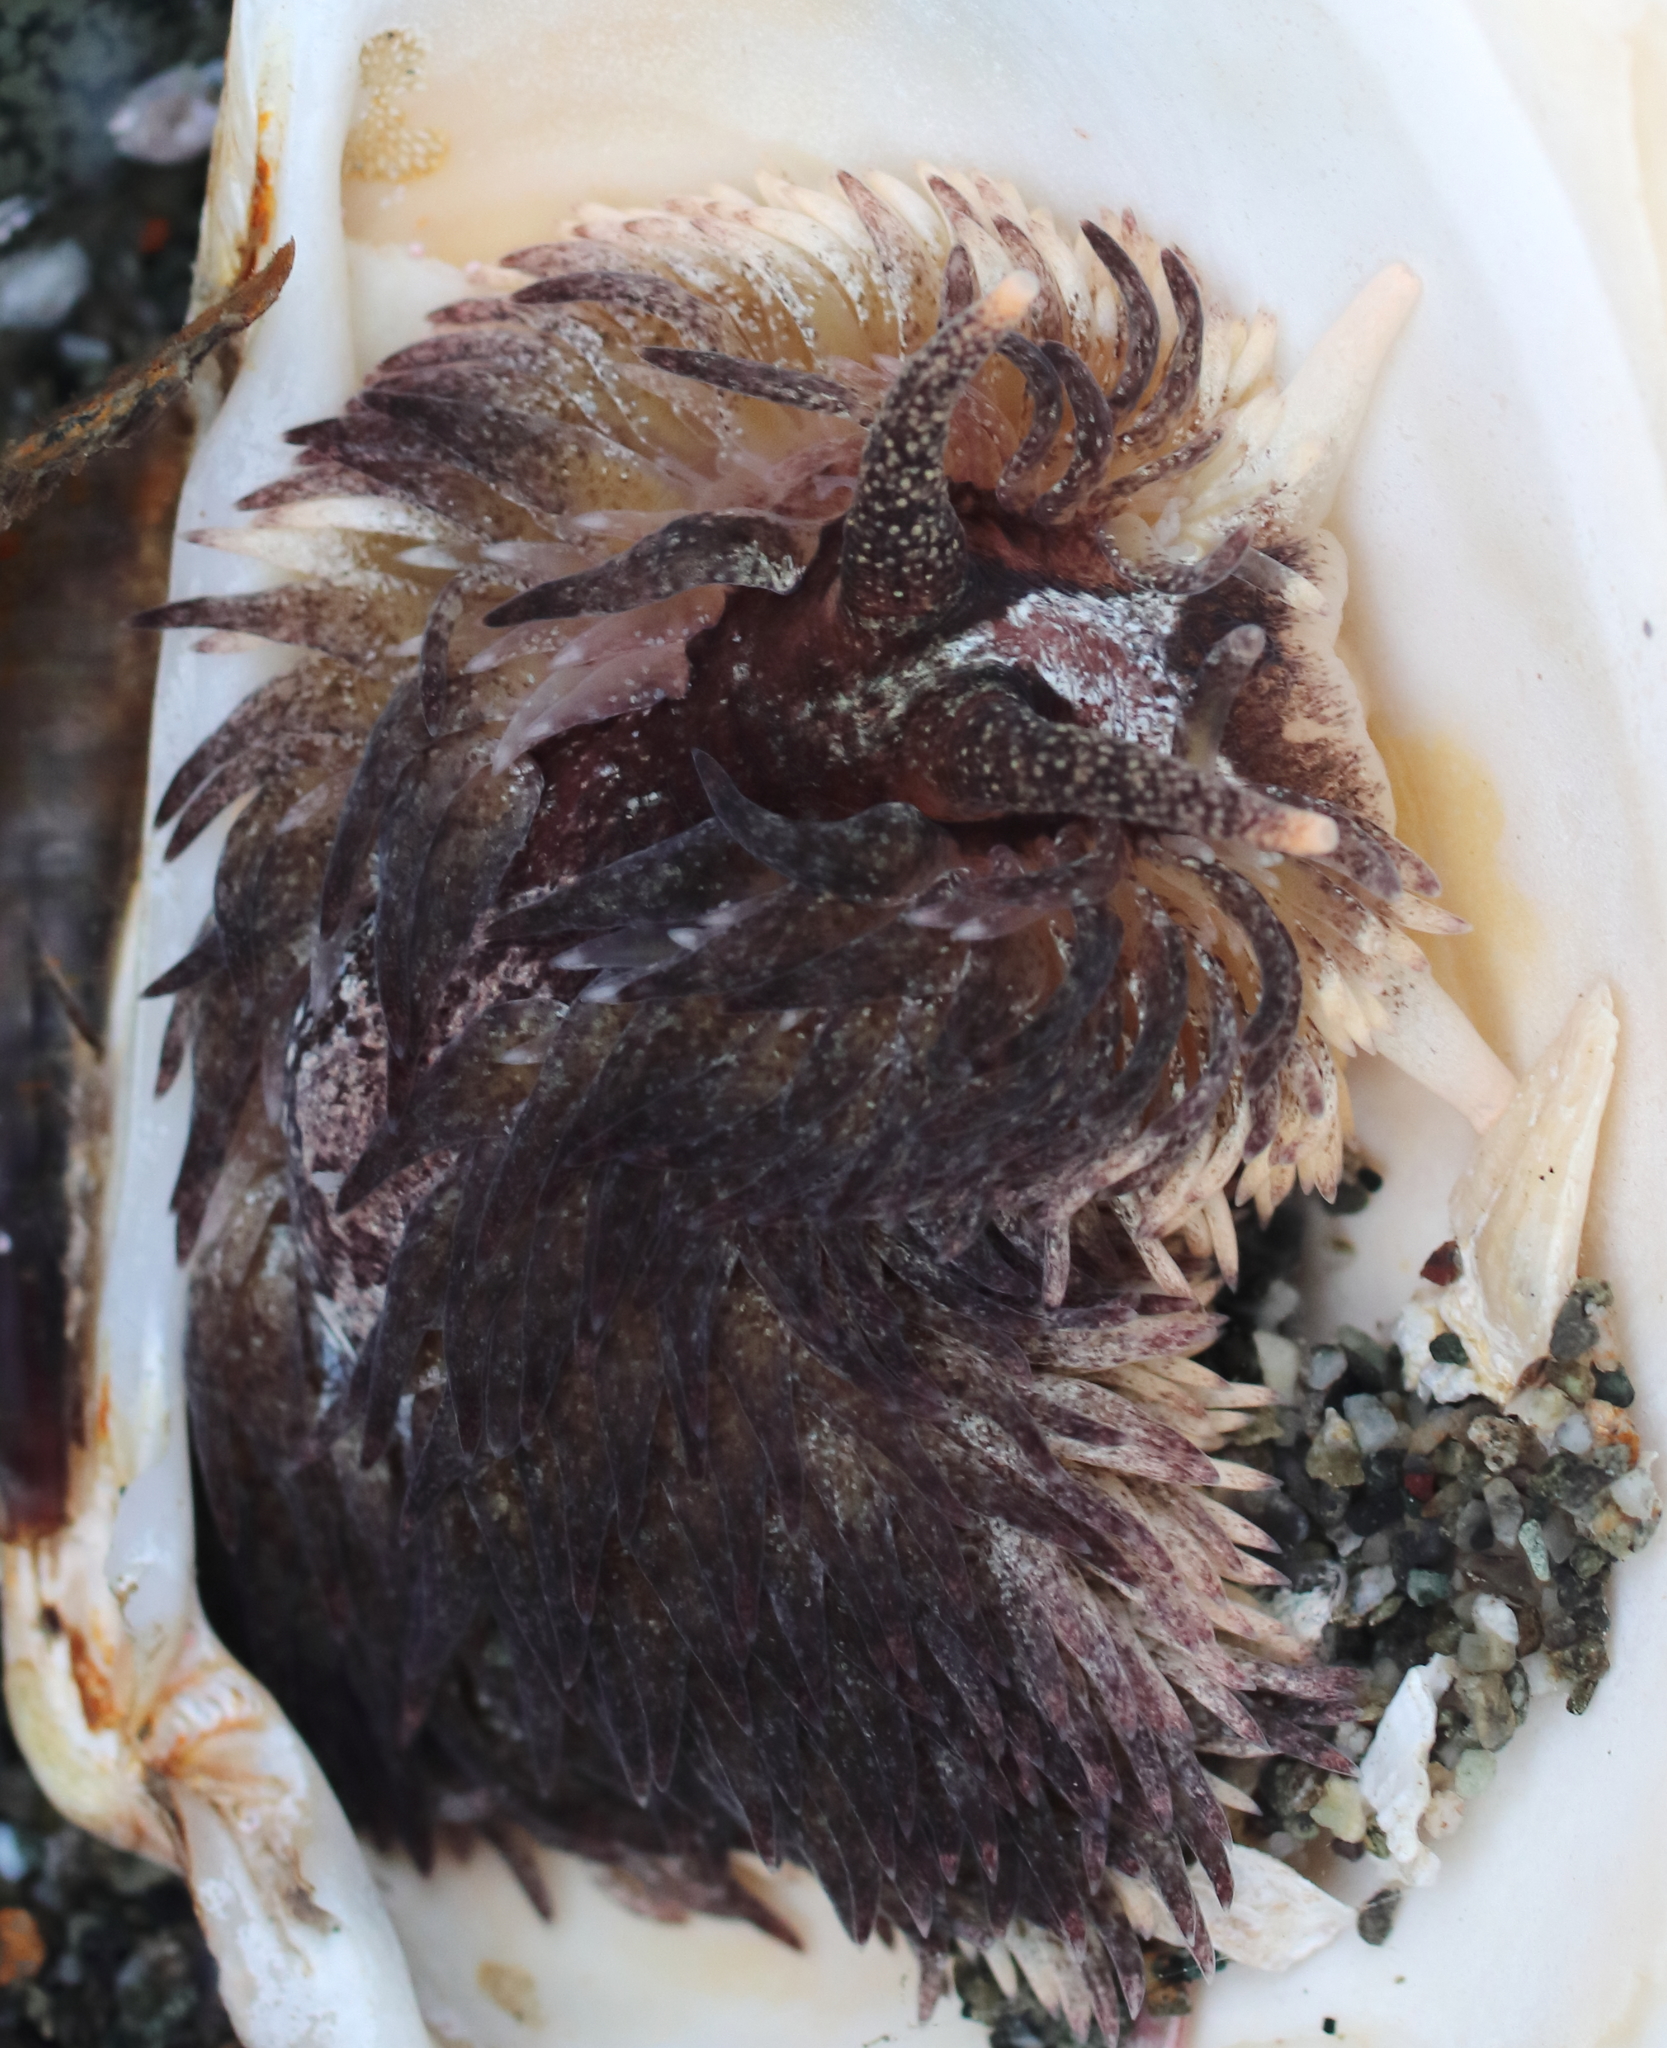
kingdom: Animalia
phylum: Mollusca
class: Gastropoda
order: Nudibranchia
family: Aeolidiidae
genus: Aeolidia
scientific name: Aeolidia loui
